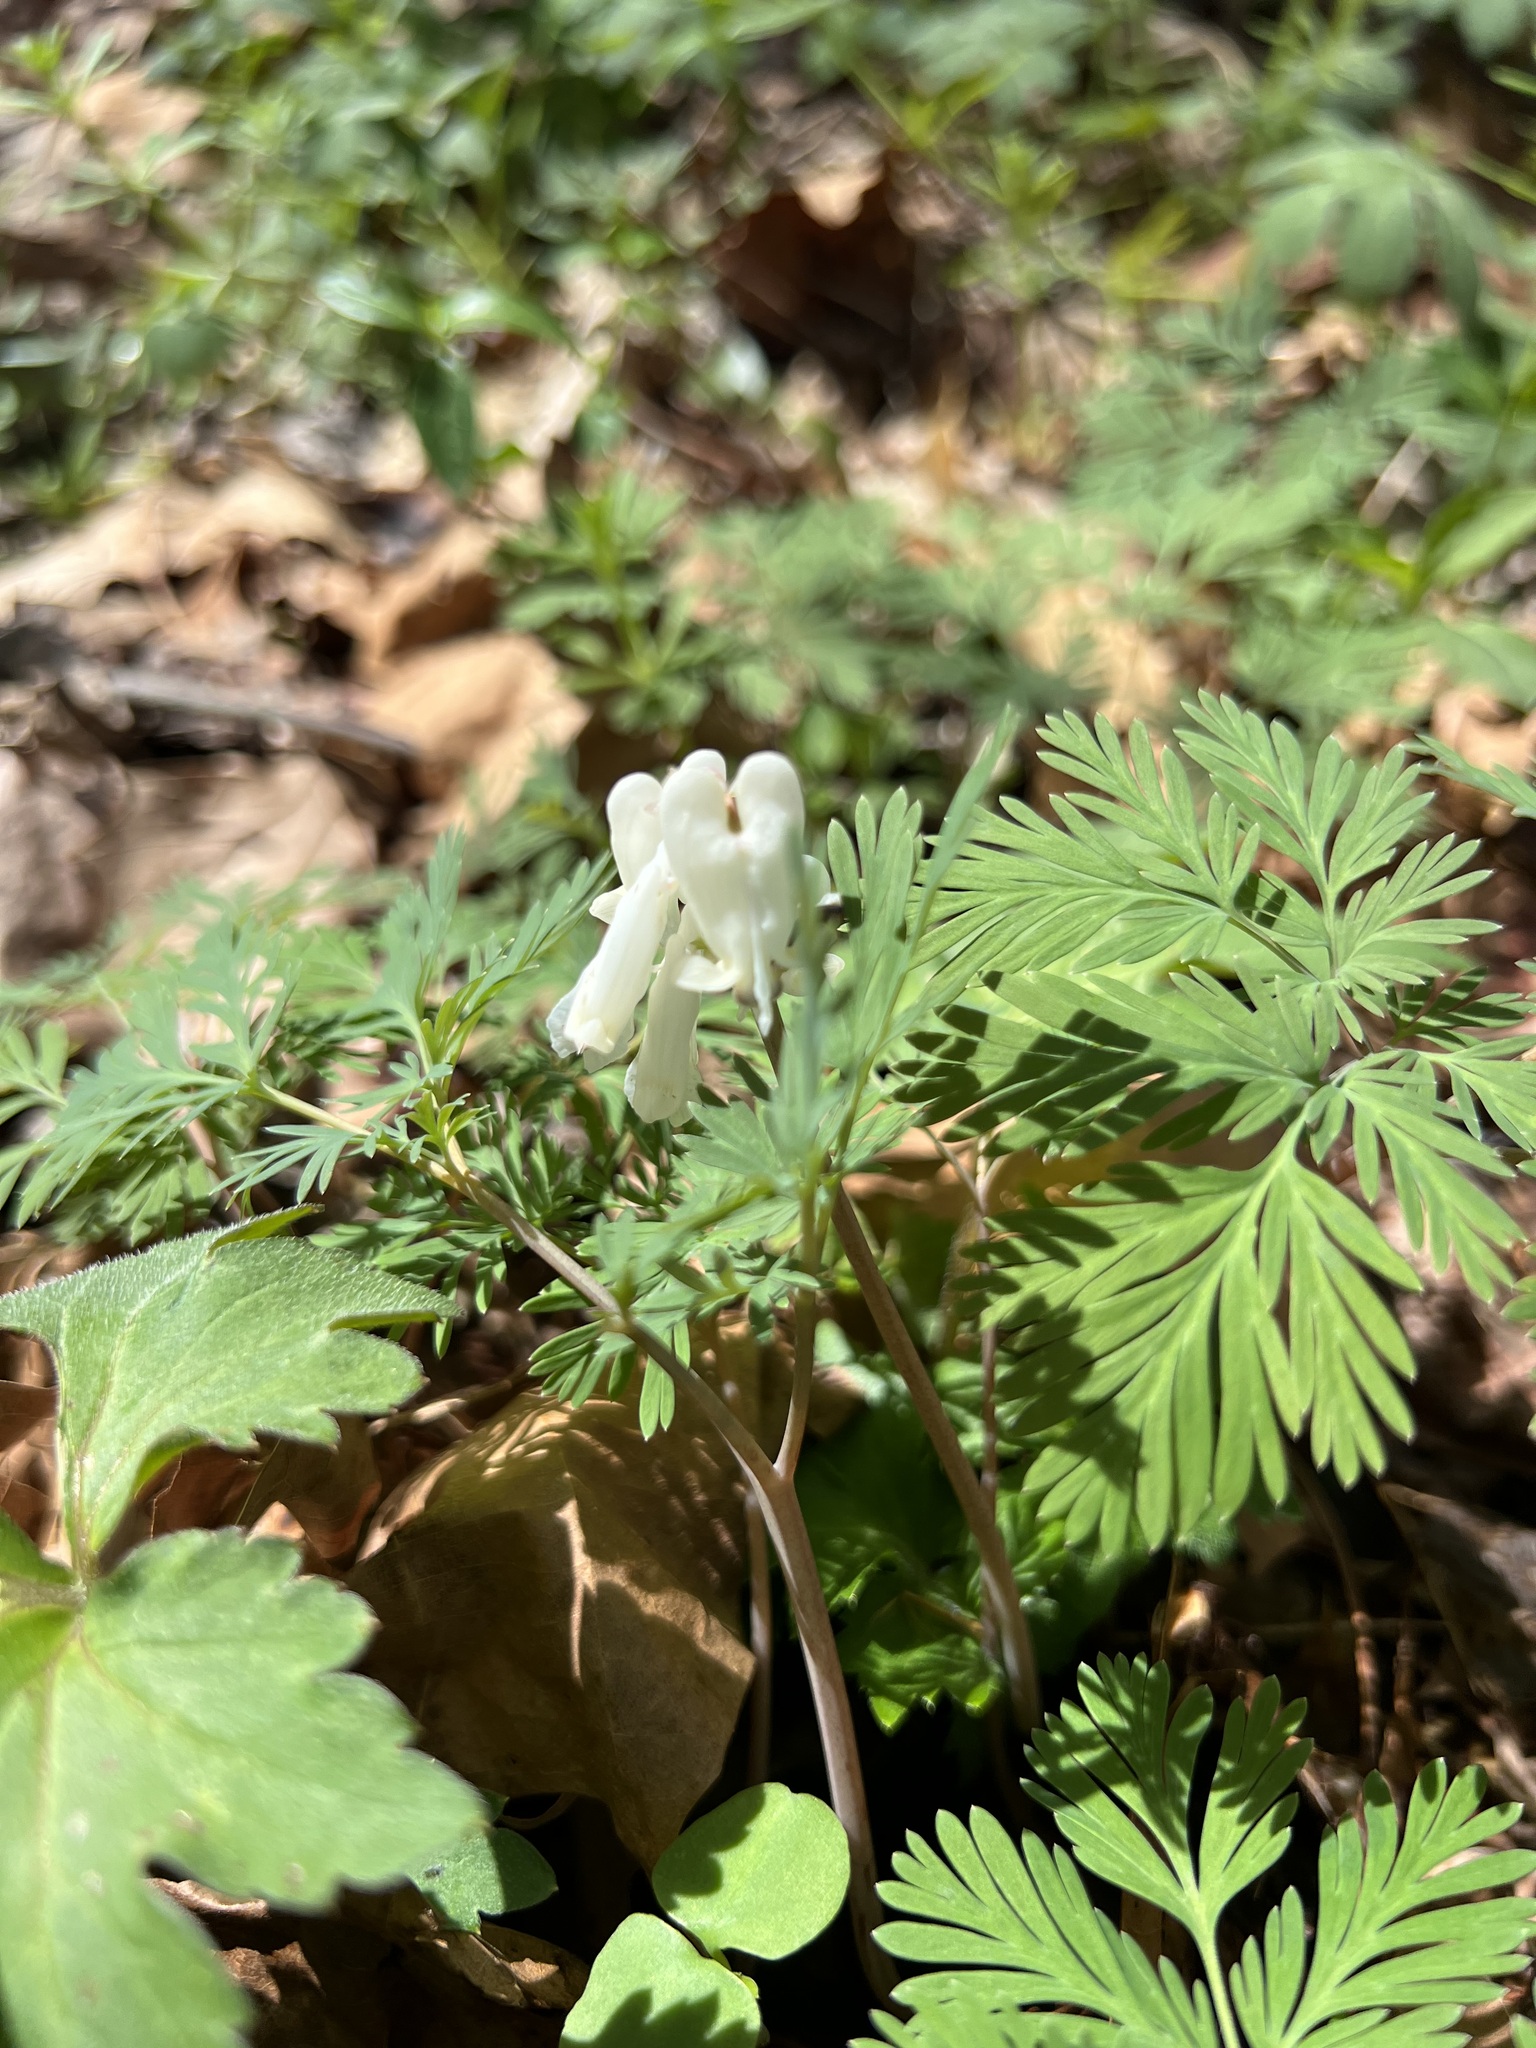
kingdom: Plantae
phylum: Tracheophyta
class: Magnoliopsida
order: Ranunculales
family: Papaveraceae
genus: Dicentra
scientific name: Dicentra canadensis
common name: Squirrel-corn
